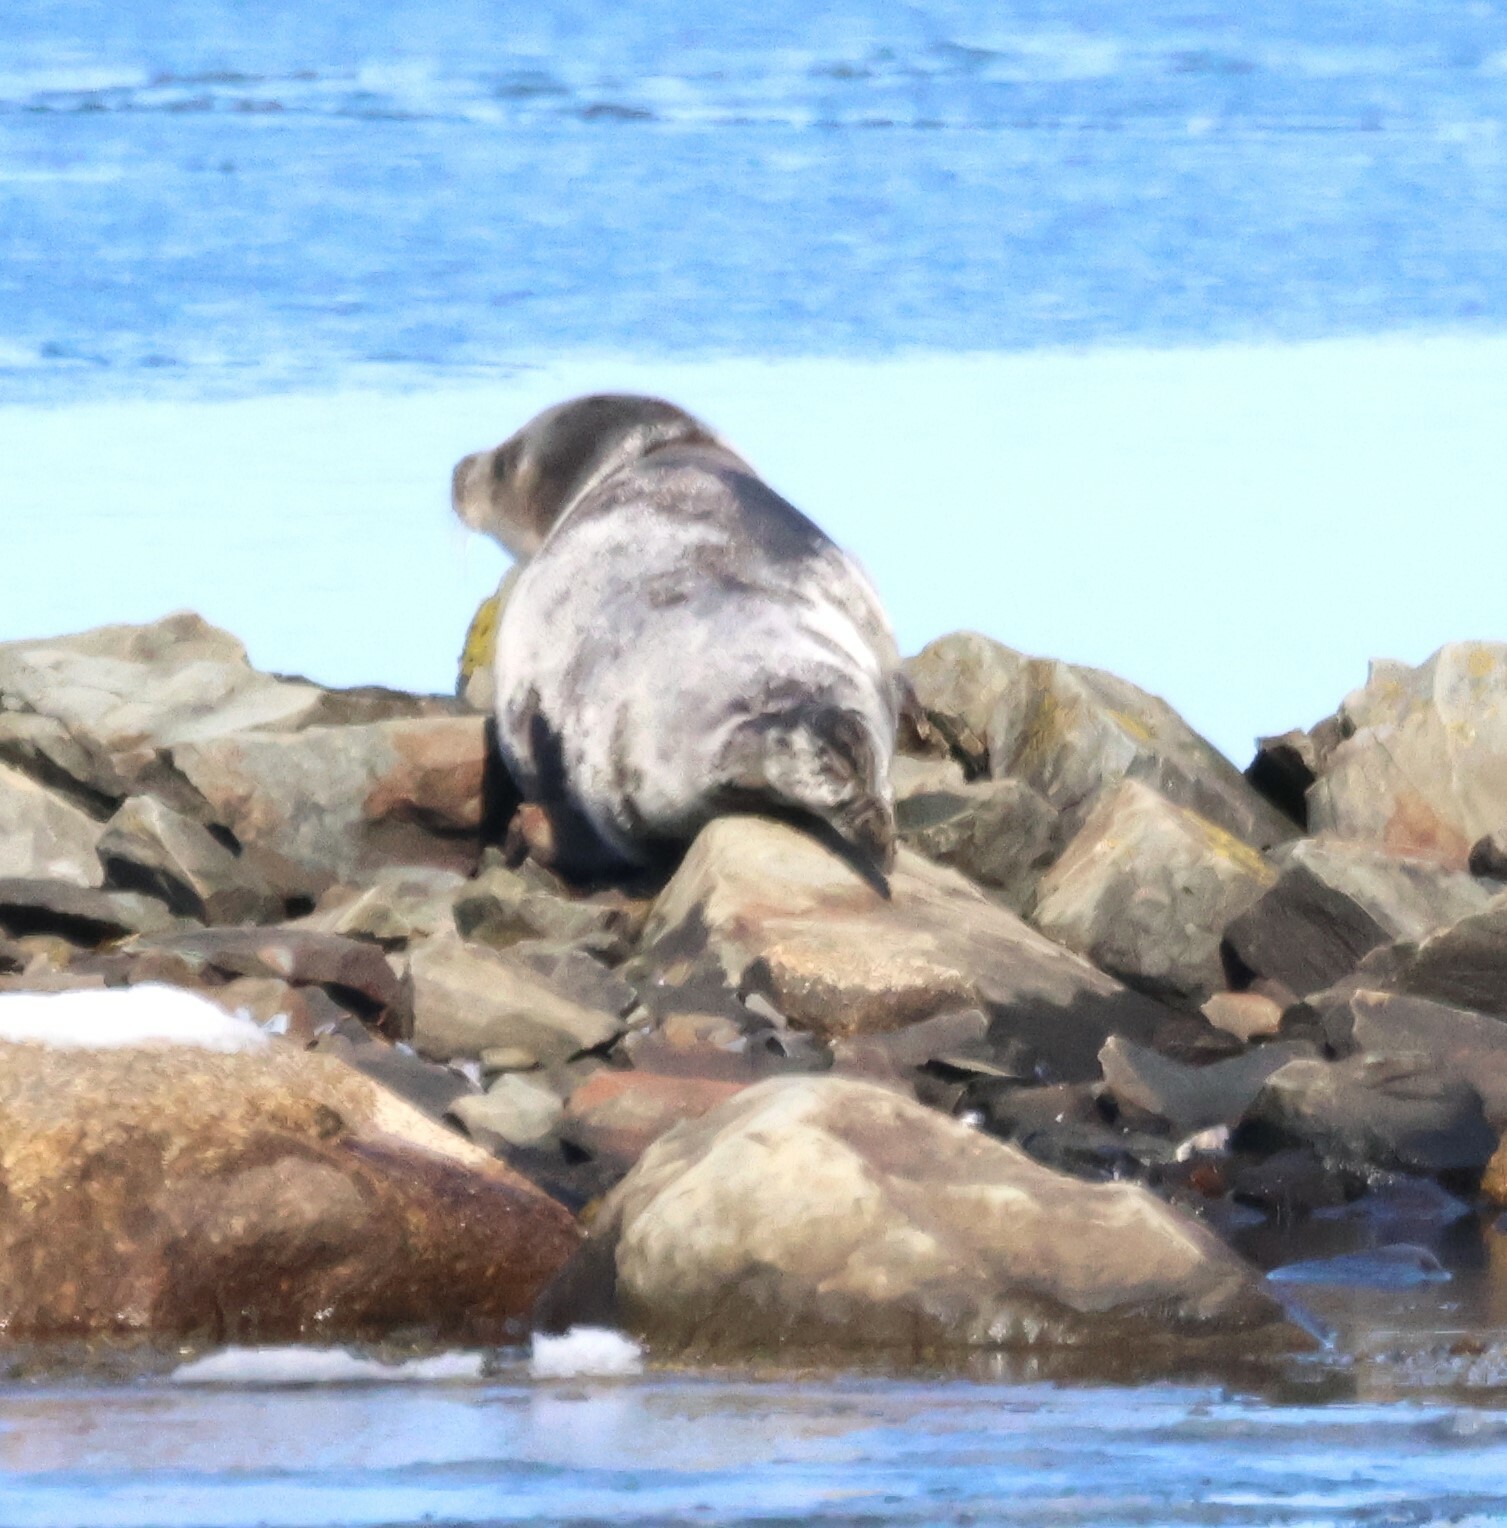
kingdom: Animalia
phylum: Chordata
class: Mammalia
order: Carnivora
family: Phocidae
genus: Pagophilus
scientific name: Pagophilus groenlandicus
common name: Harp seal
